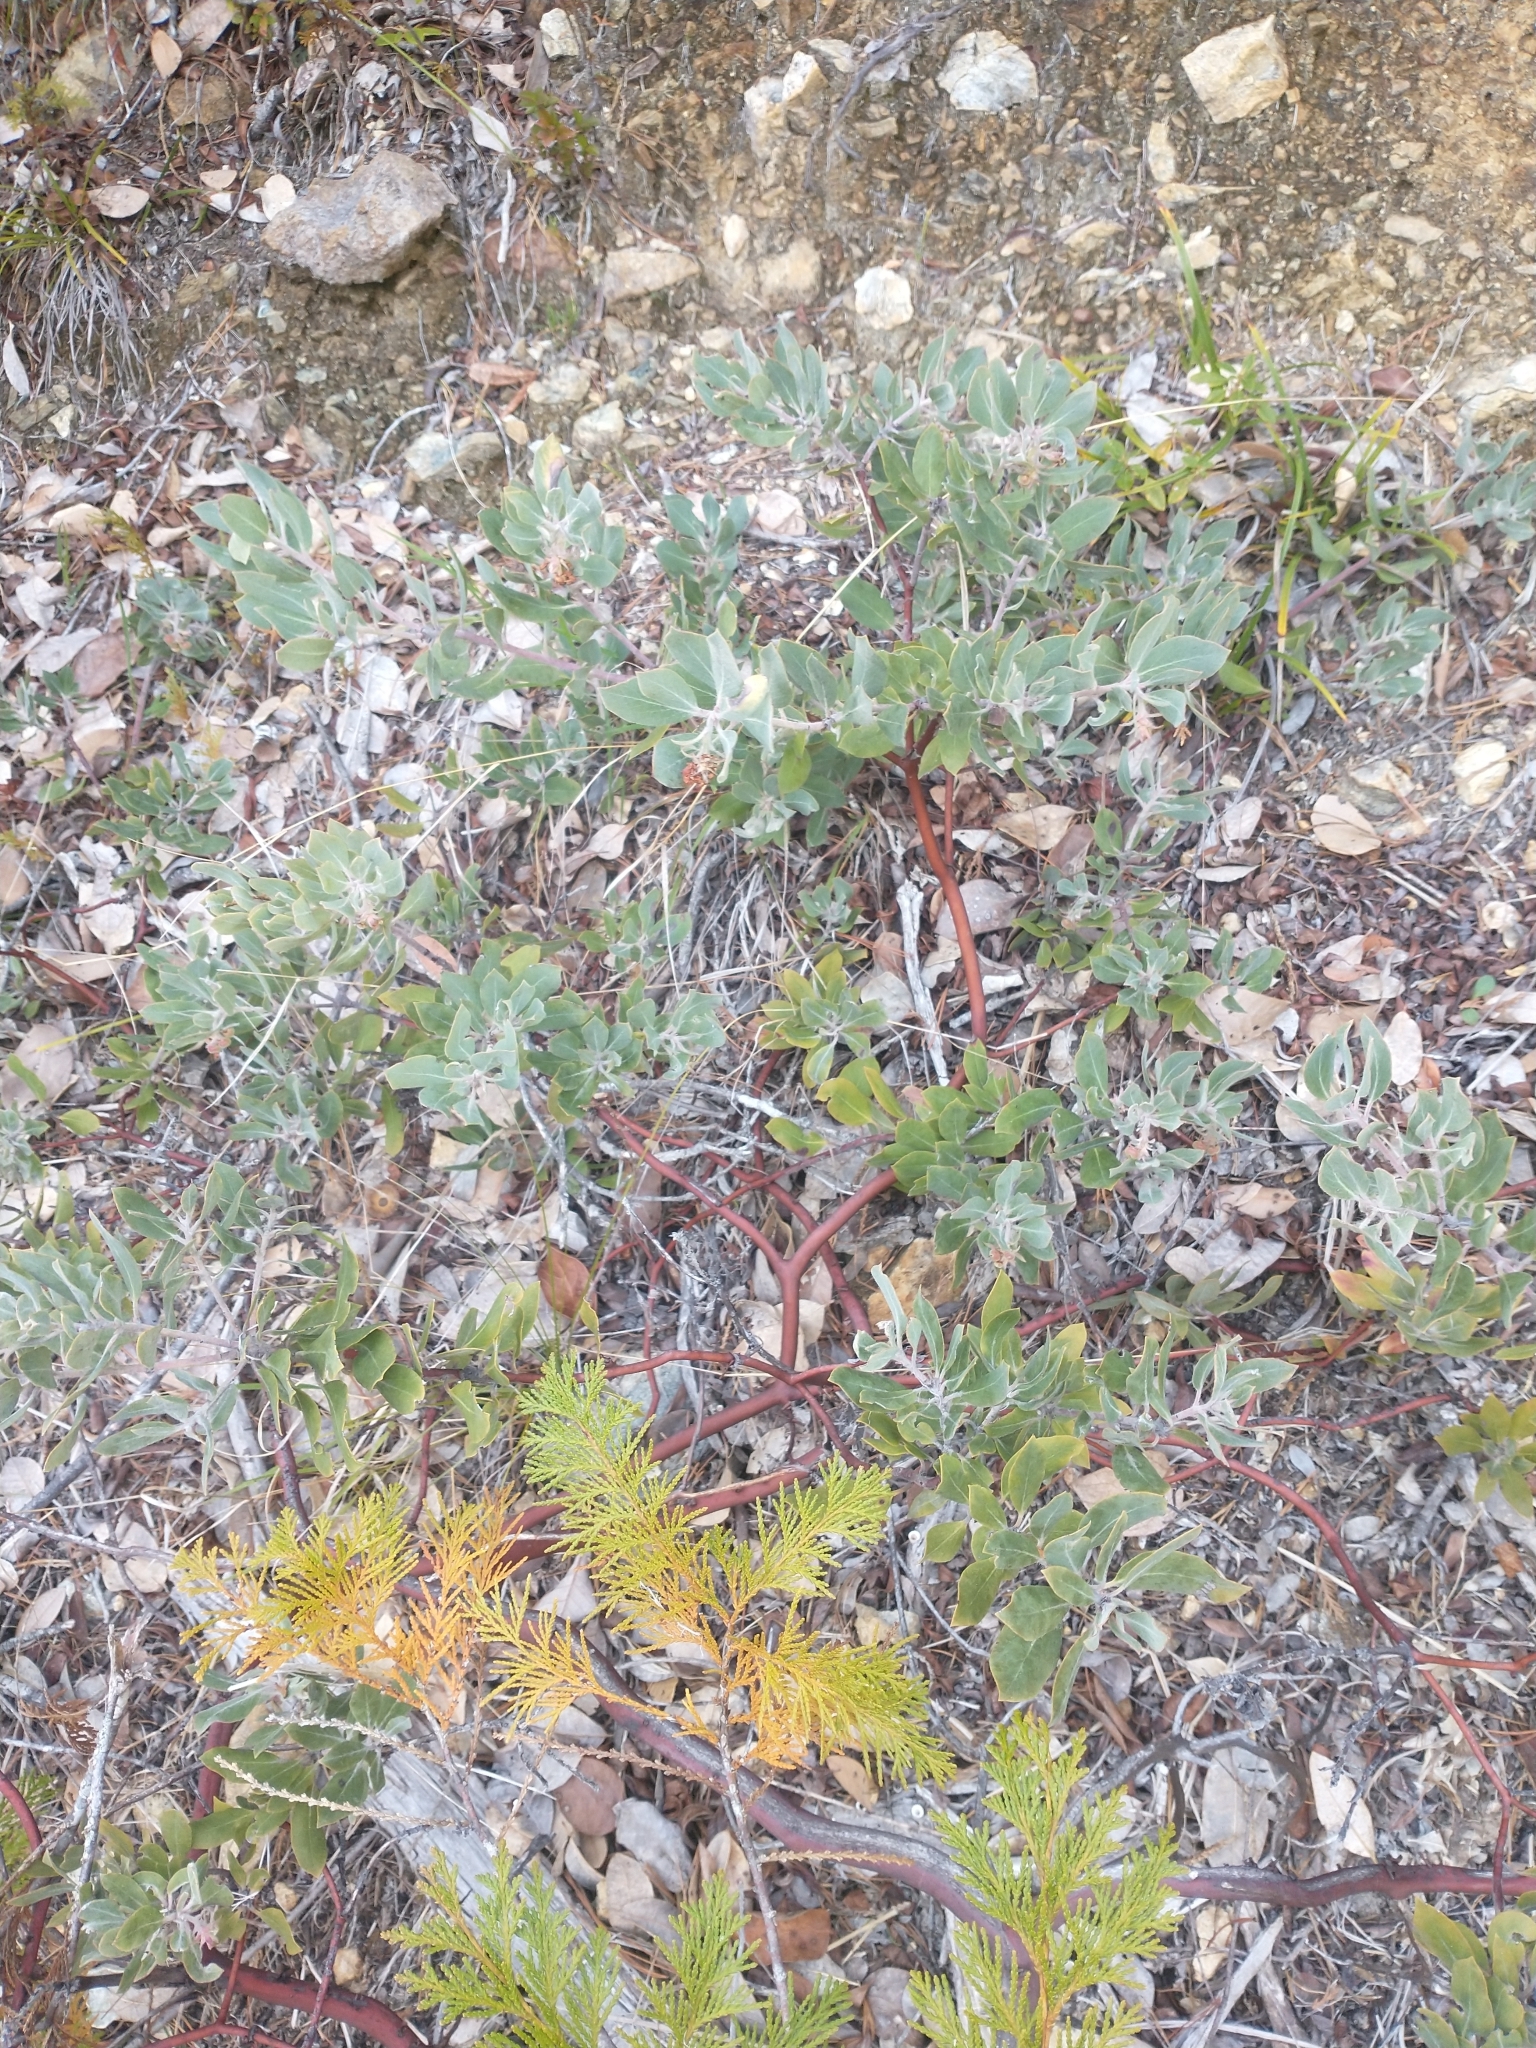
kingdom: Plantae
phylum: Tracheophyta
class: Magnoliopsida
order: Ericales
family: Ericaceae
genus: Arctostaphylos
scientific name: Arctostaphylos nortensis
